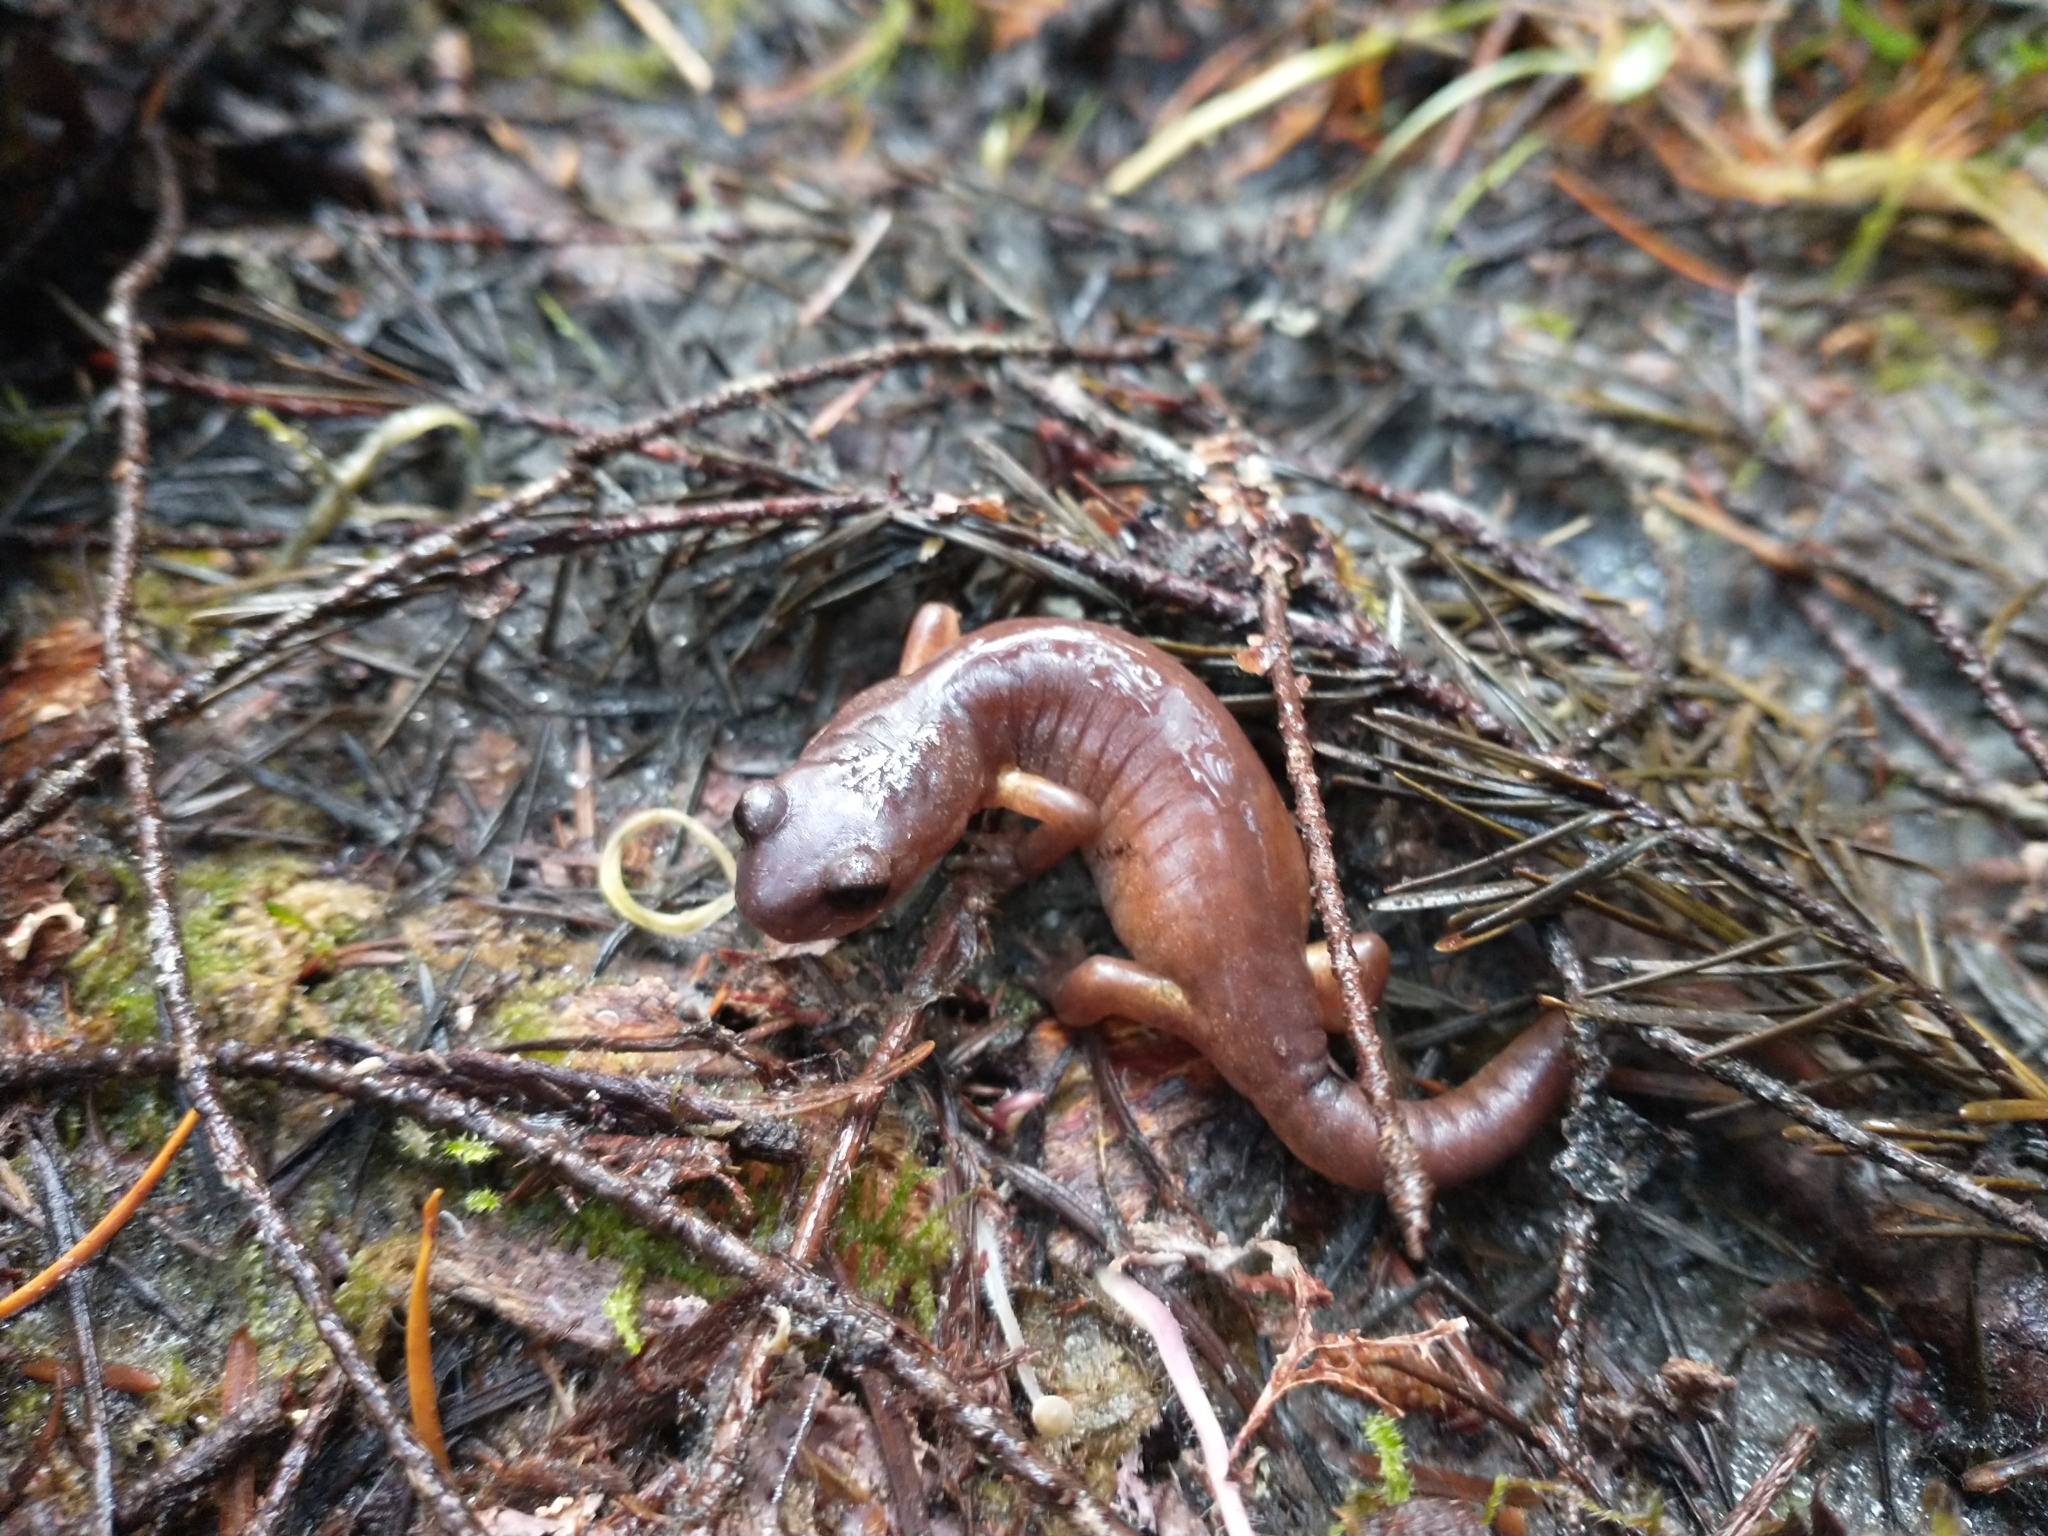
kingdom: Animalia
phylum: Chordata
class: Amphibia
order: Caudata
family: Plethodontidae
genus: Ensatina
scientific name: Ensatina eschscholtzii
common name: Ensatina
